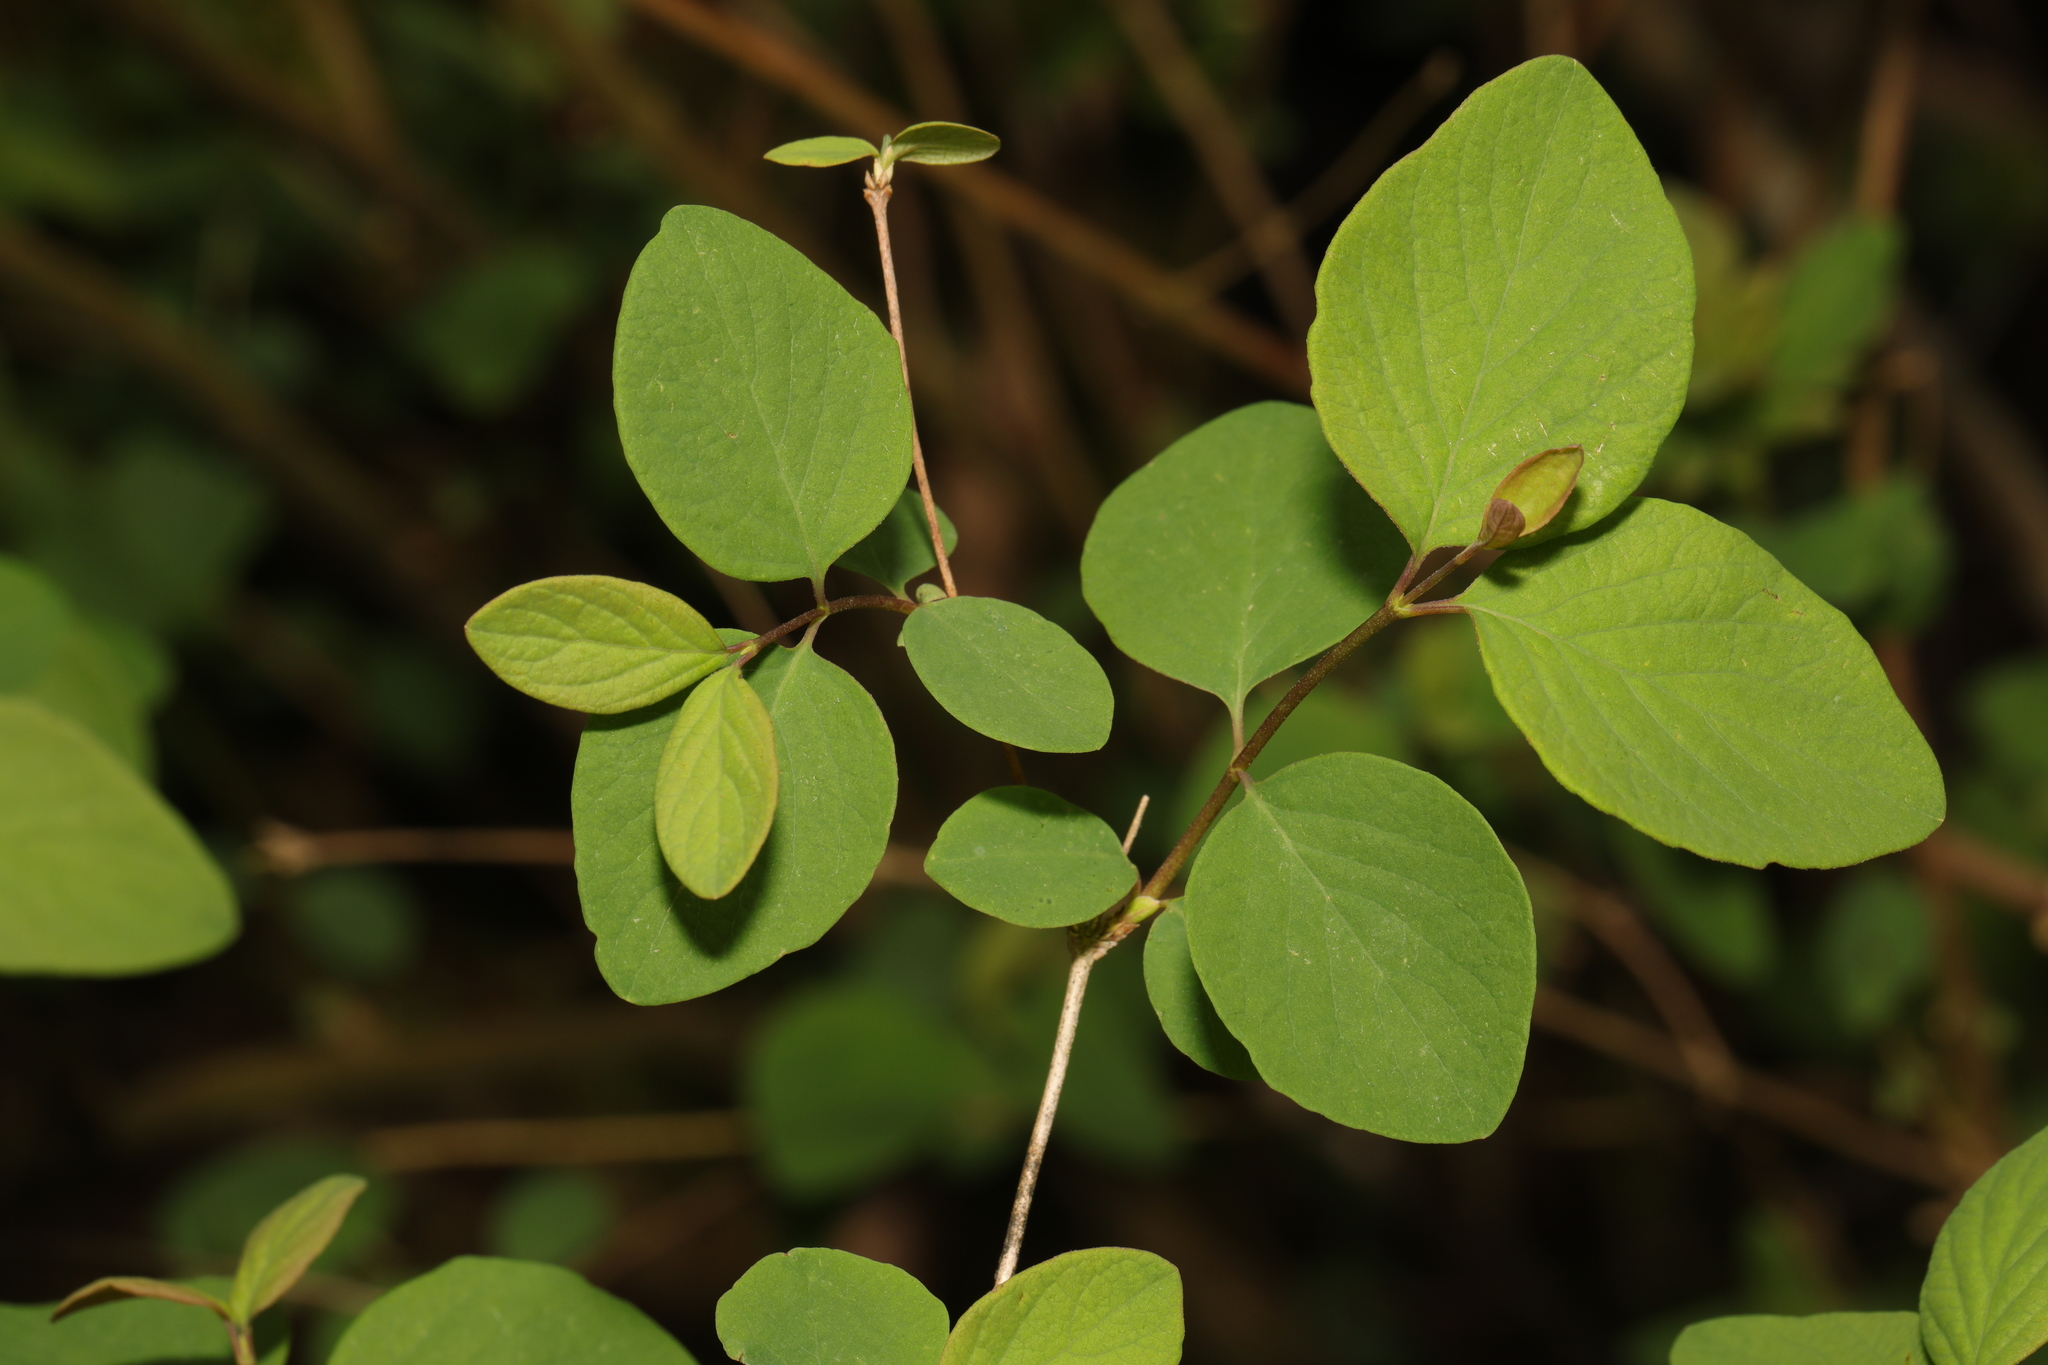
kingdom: Plantae
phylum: Tracheophyta
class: Magnoliopsida
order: Dipsacales
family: Caprifoliaceae
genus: Symphoricarpos
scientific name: Symphoricarpos albus
